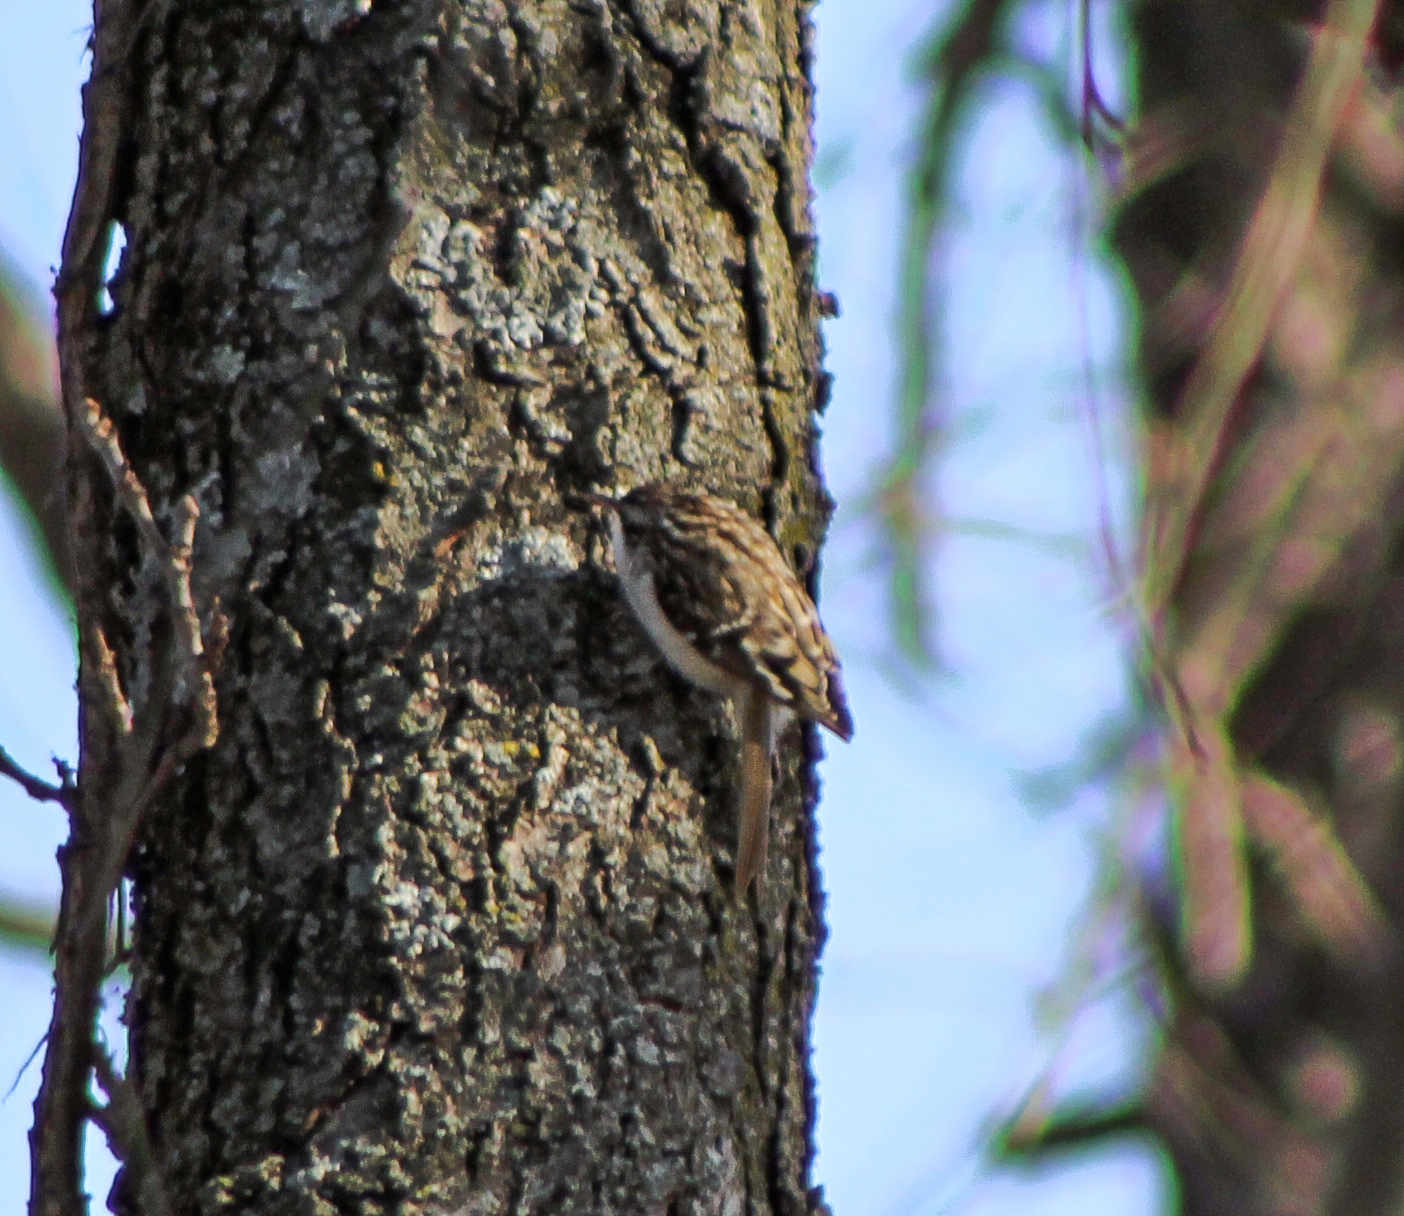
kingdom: Animalia
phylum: Chordata
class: Aves
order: Passeriformes
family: Certhiidae
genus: Certhia
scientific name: Certhia americana
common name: Brown creeper
